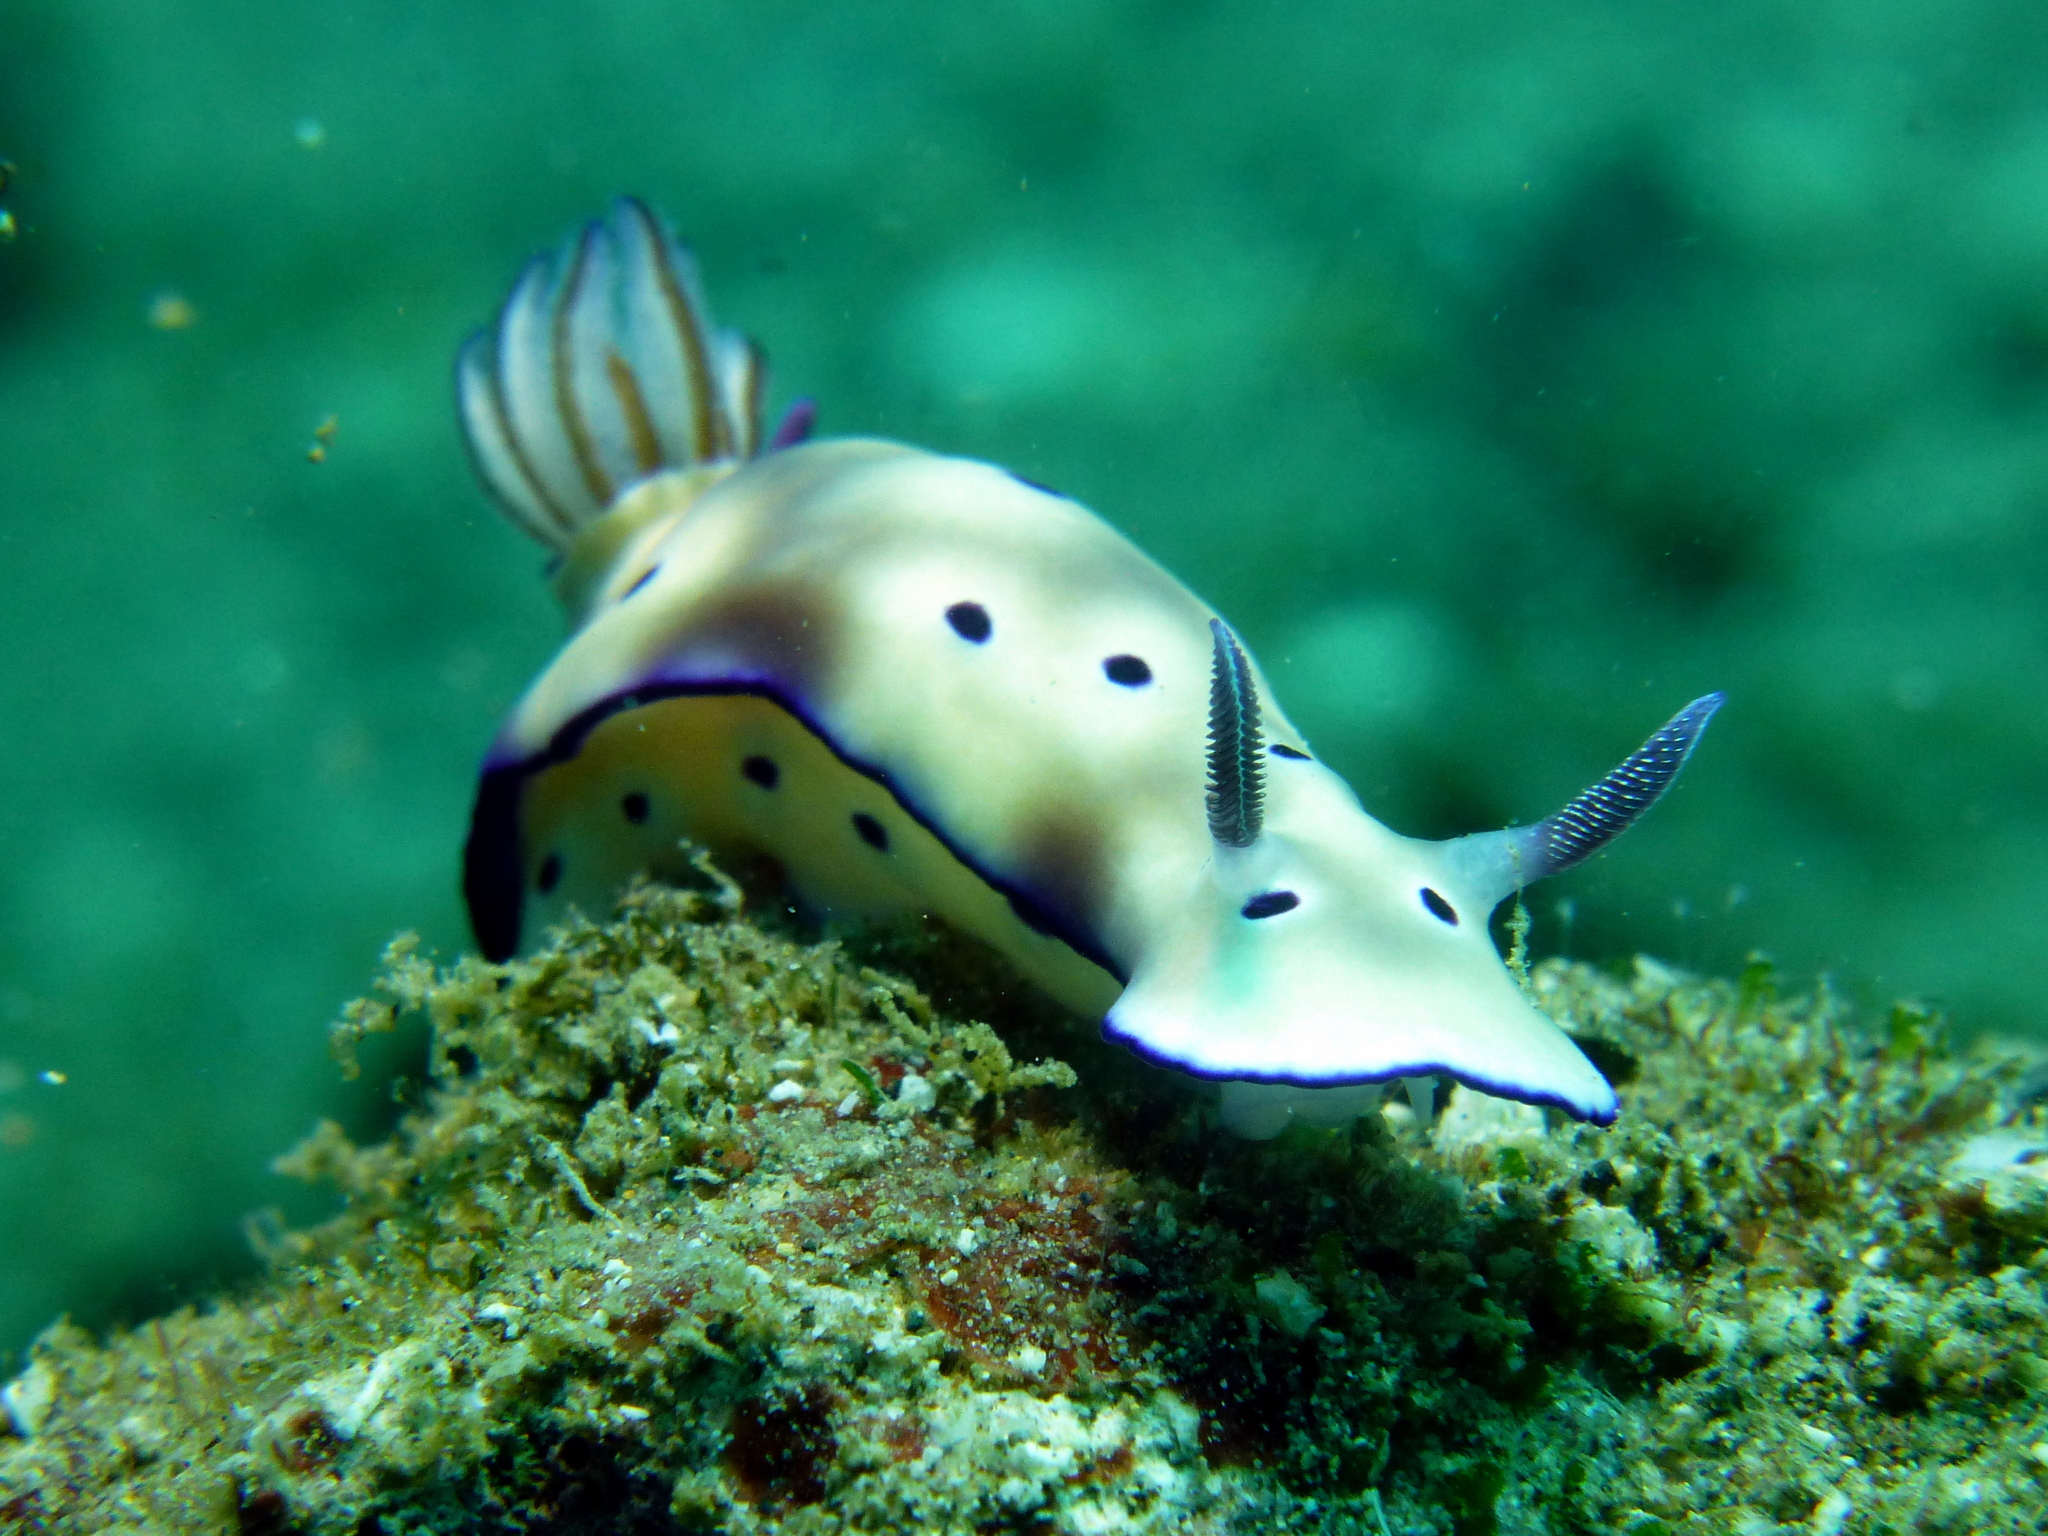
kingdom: Animalia
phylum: Mollusca
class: Gastropoda
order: Nudibranchia
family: Chromodorididae
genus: Hypselodoris
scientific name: Hypselodoris tryoni
